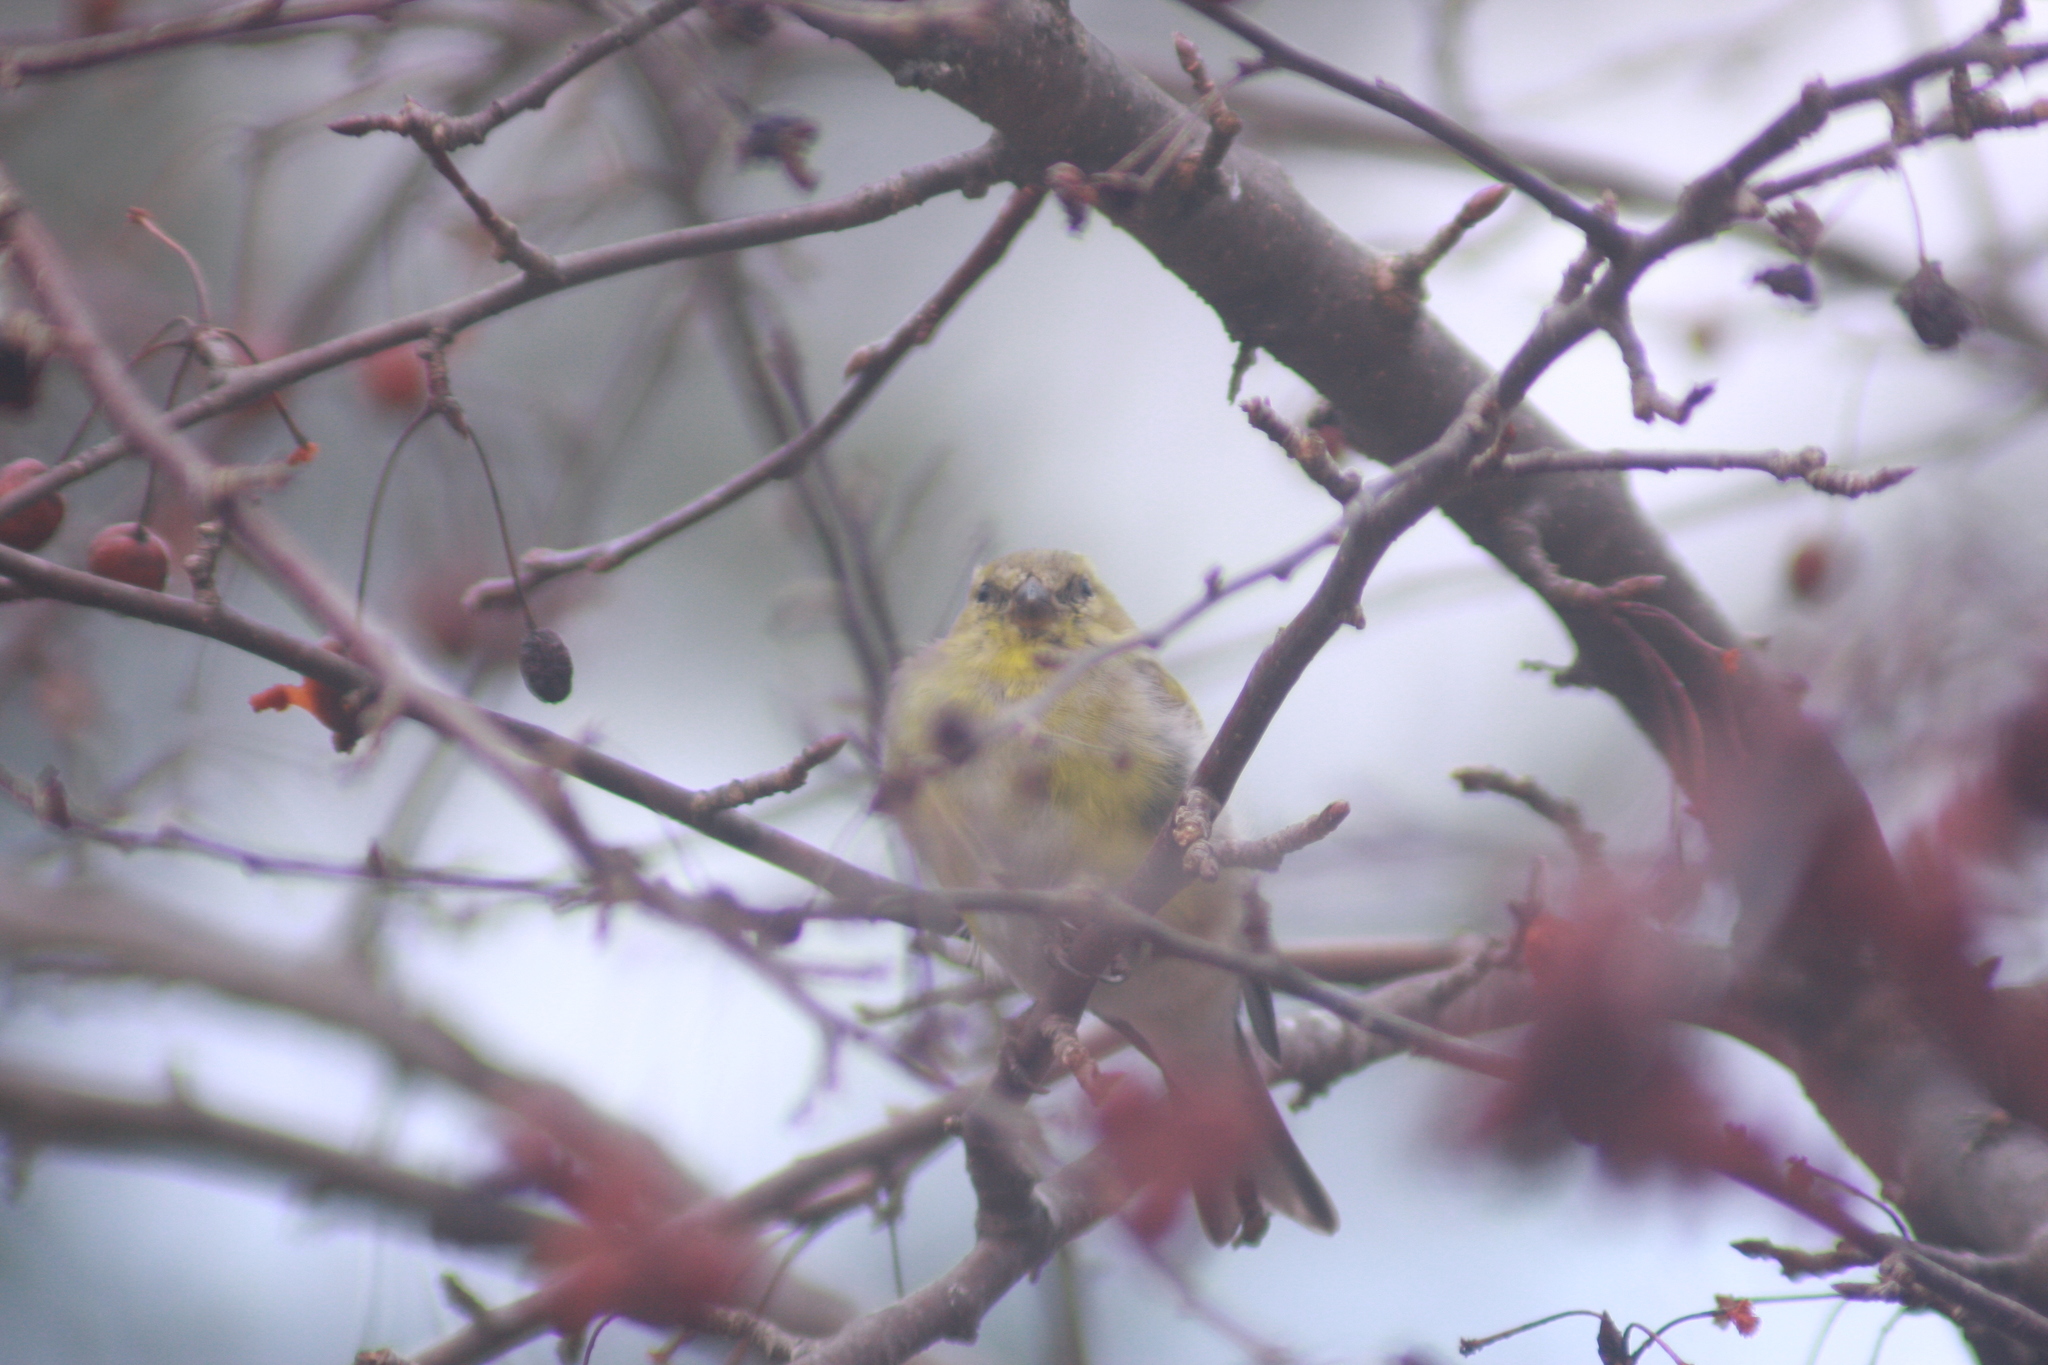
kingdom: Animalia
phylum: Chordata
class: Aves
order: Passeriformes
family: Fringillidae
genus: Spinus
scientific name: Spinus tristis
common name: American goldfinch
